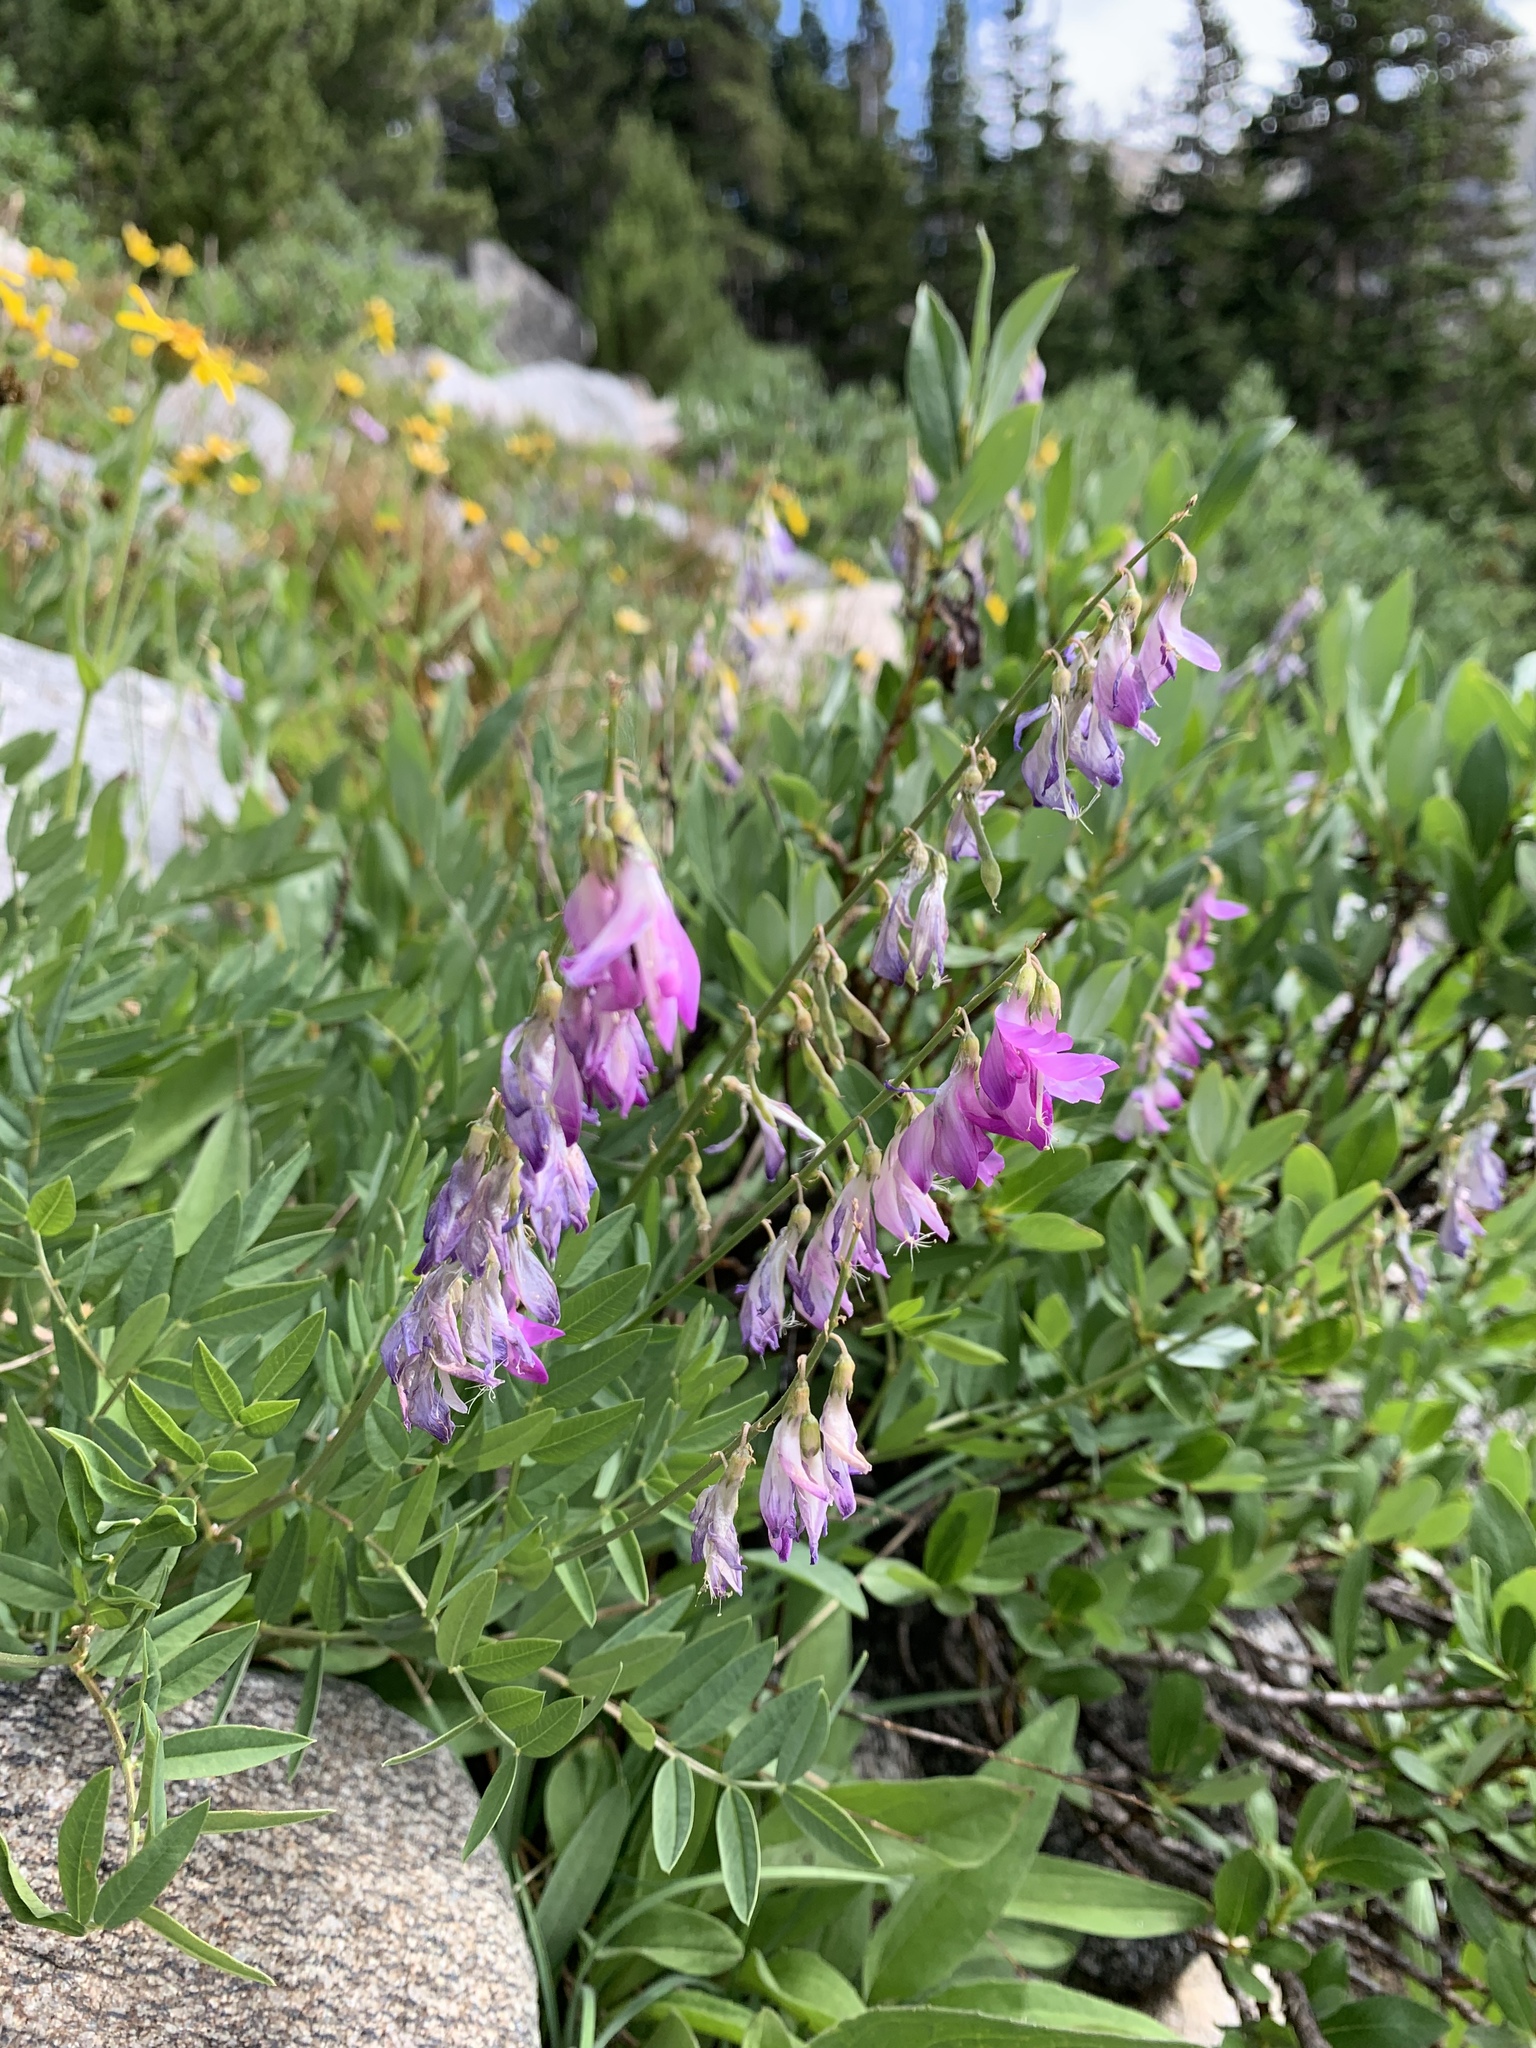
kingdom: Plantae
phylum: Tracheophyta
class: Magnoliopsida
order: Fabales
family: Fabaceae
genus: Hedysarum
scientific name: Hedysarum alpinum
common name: Alpine sweet-vetch
